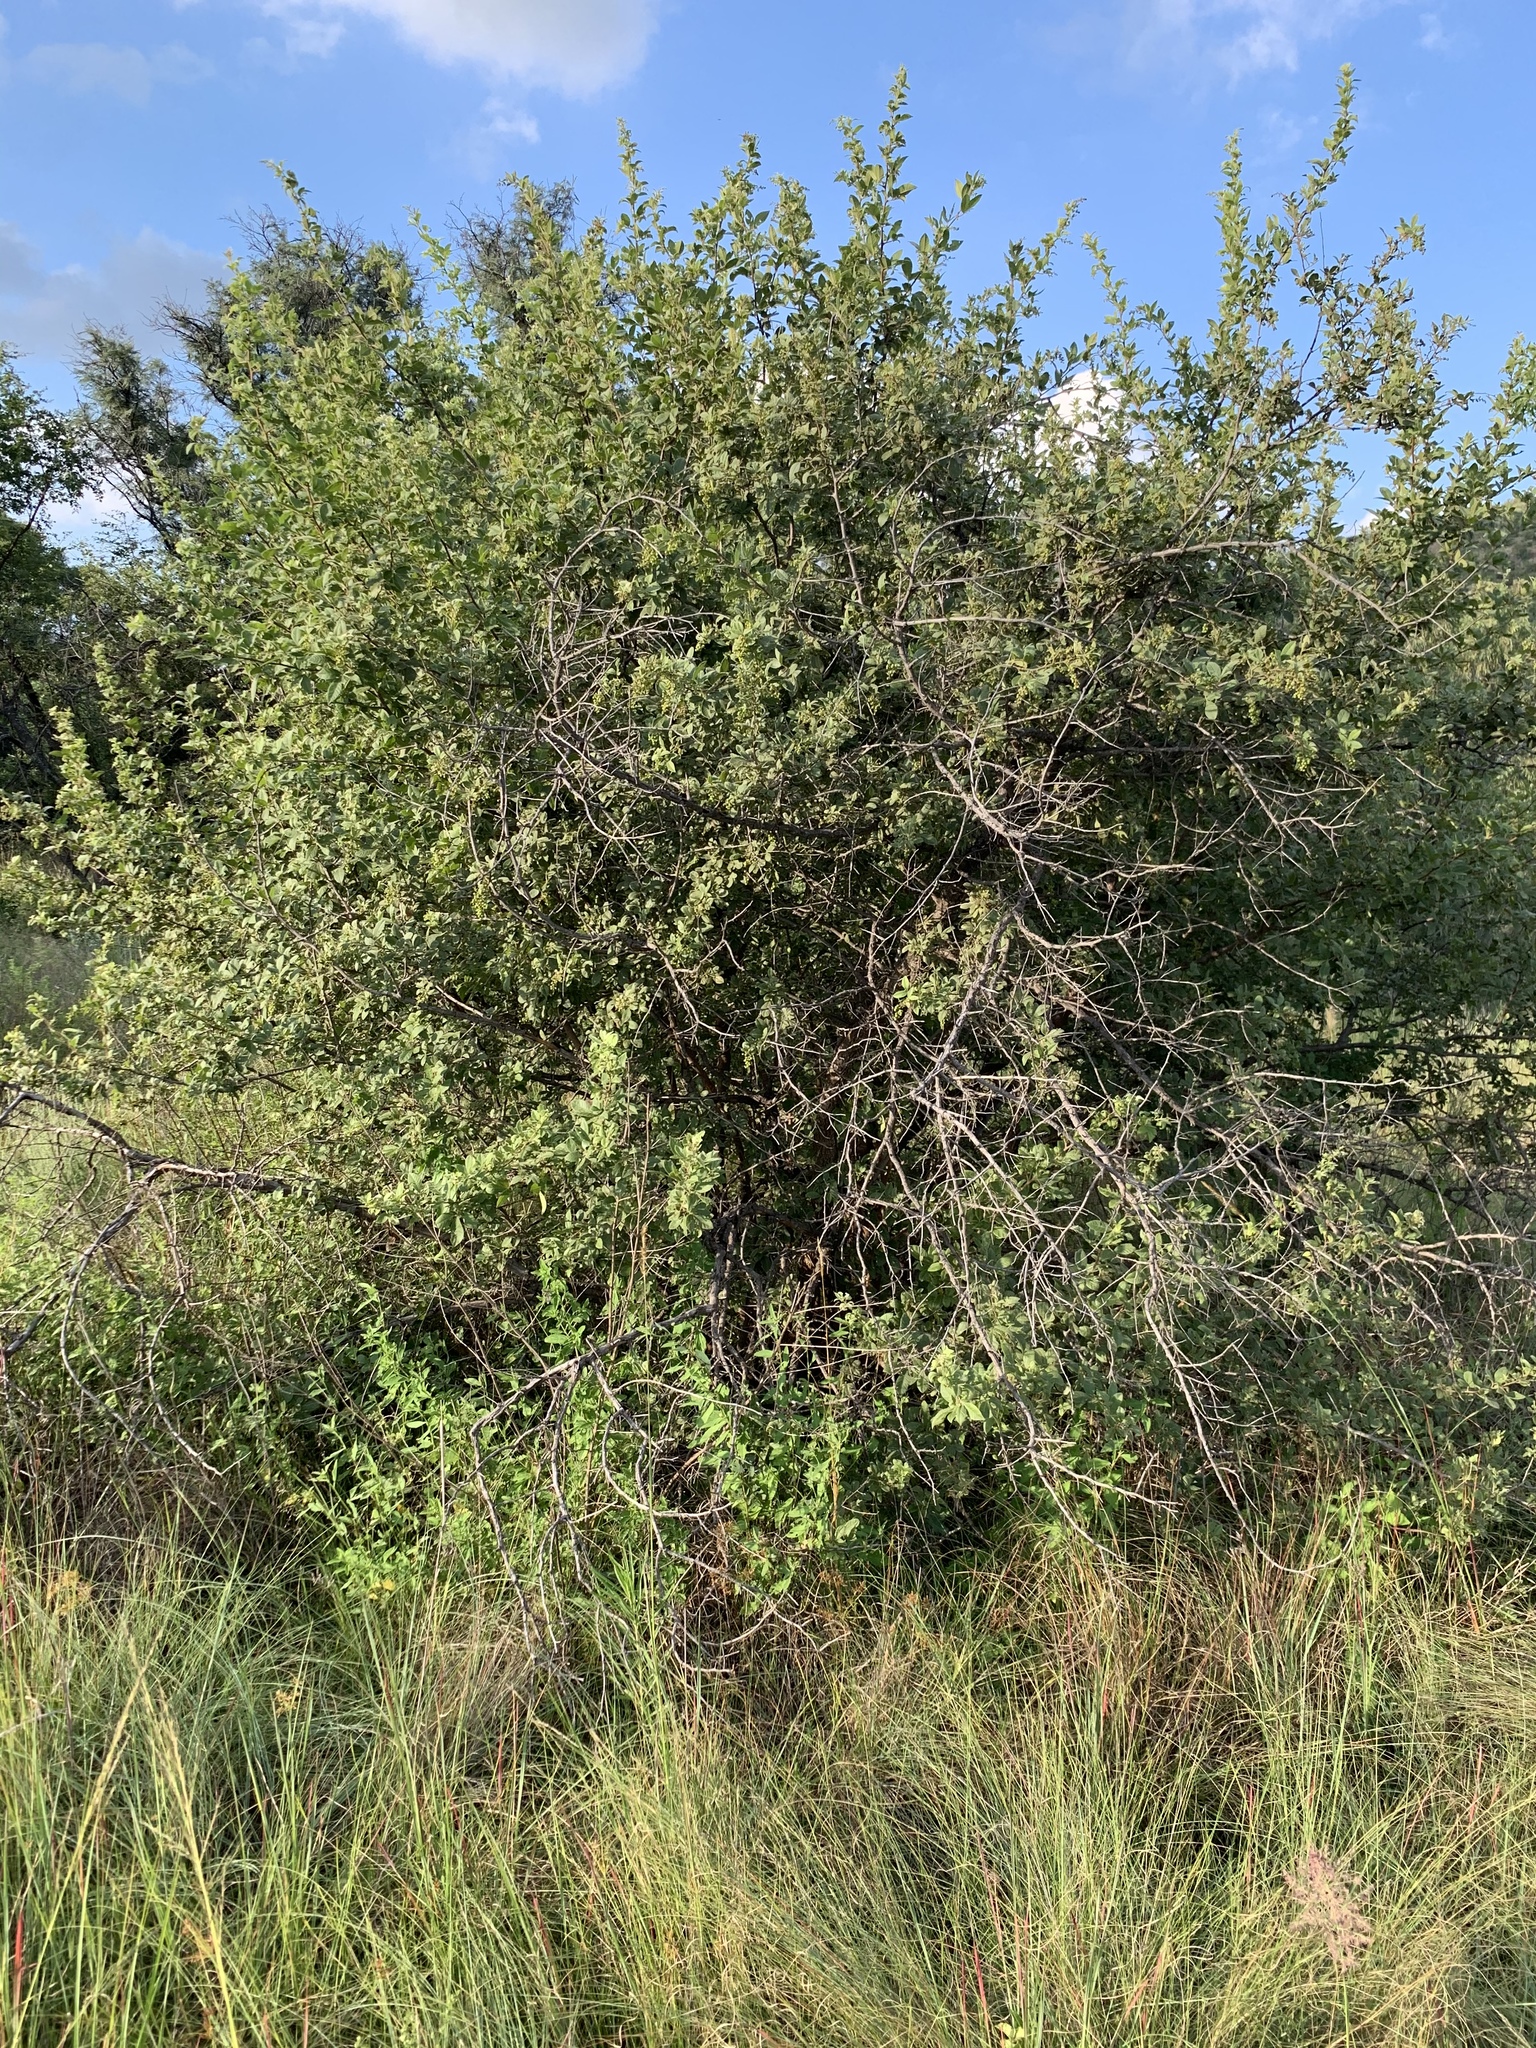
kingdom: Plantae
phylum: Tracheophyta
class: Magnoliopsida
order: Sapindales
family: Anacardiaceae
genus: Searsia
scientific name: Searsia pyroides
